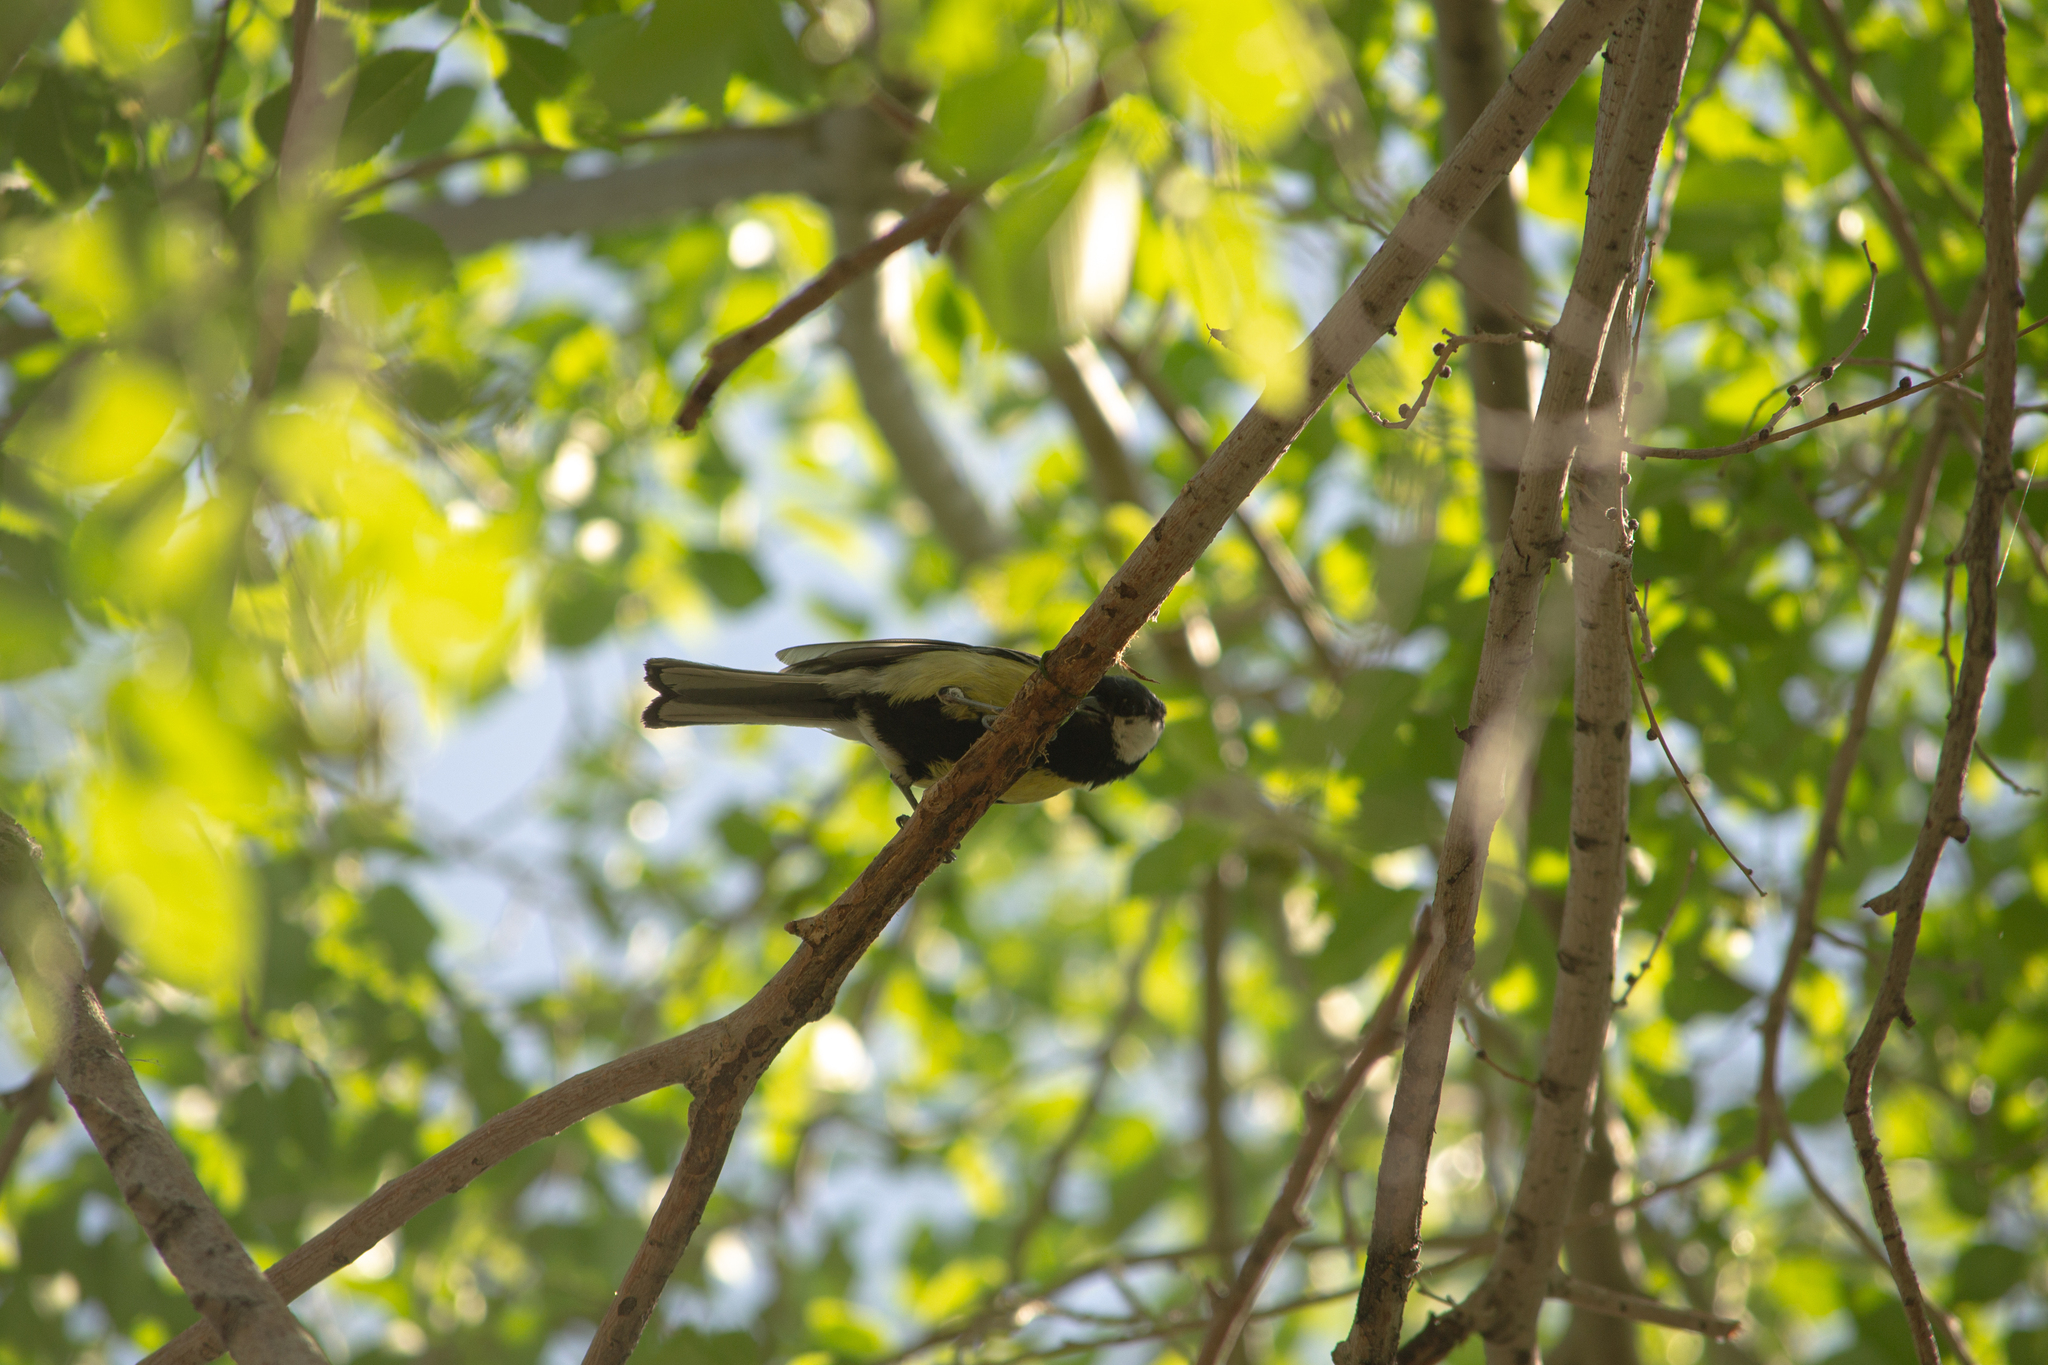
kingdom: Animalia
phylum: Chordata
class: Aves
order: Passeriformes
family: Paridae
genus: Parus
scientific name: Parus major
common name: Great tit
